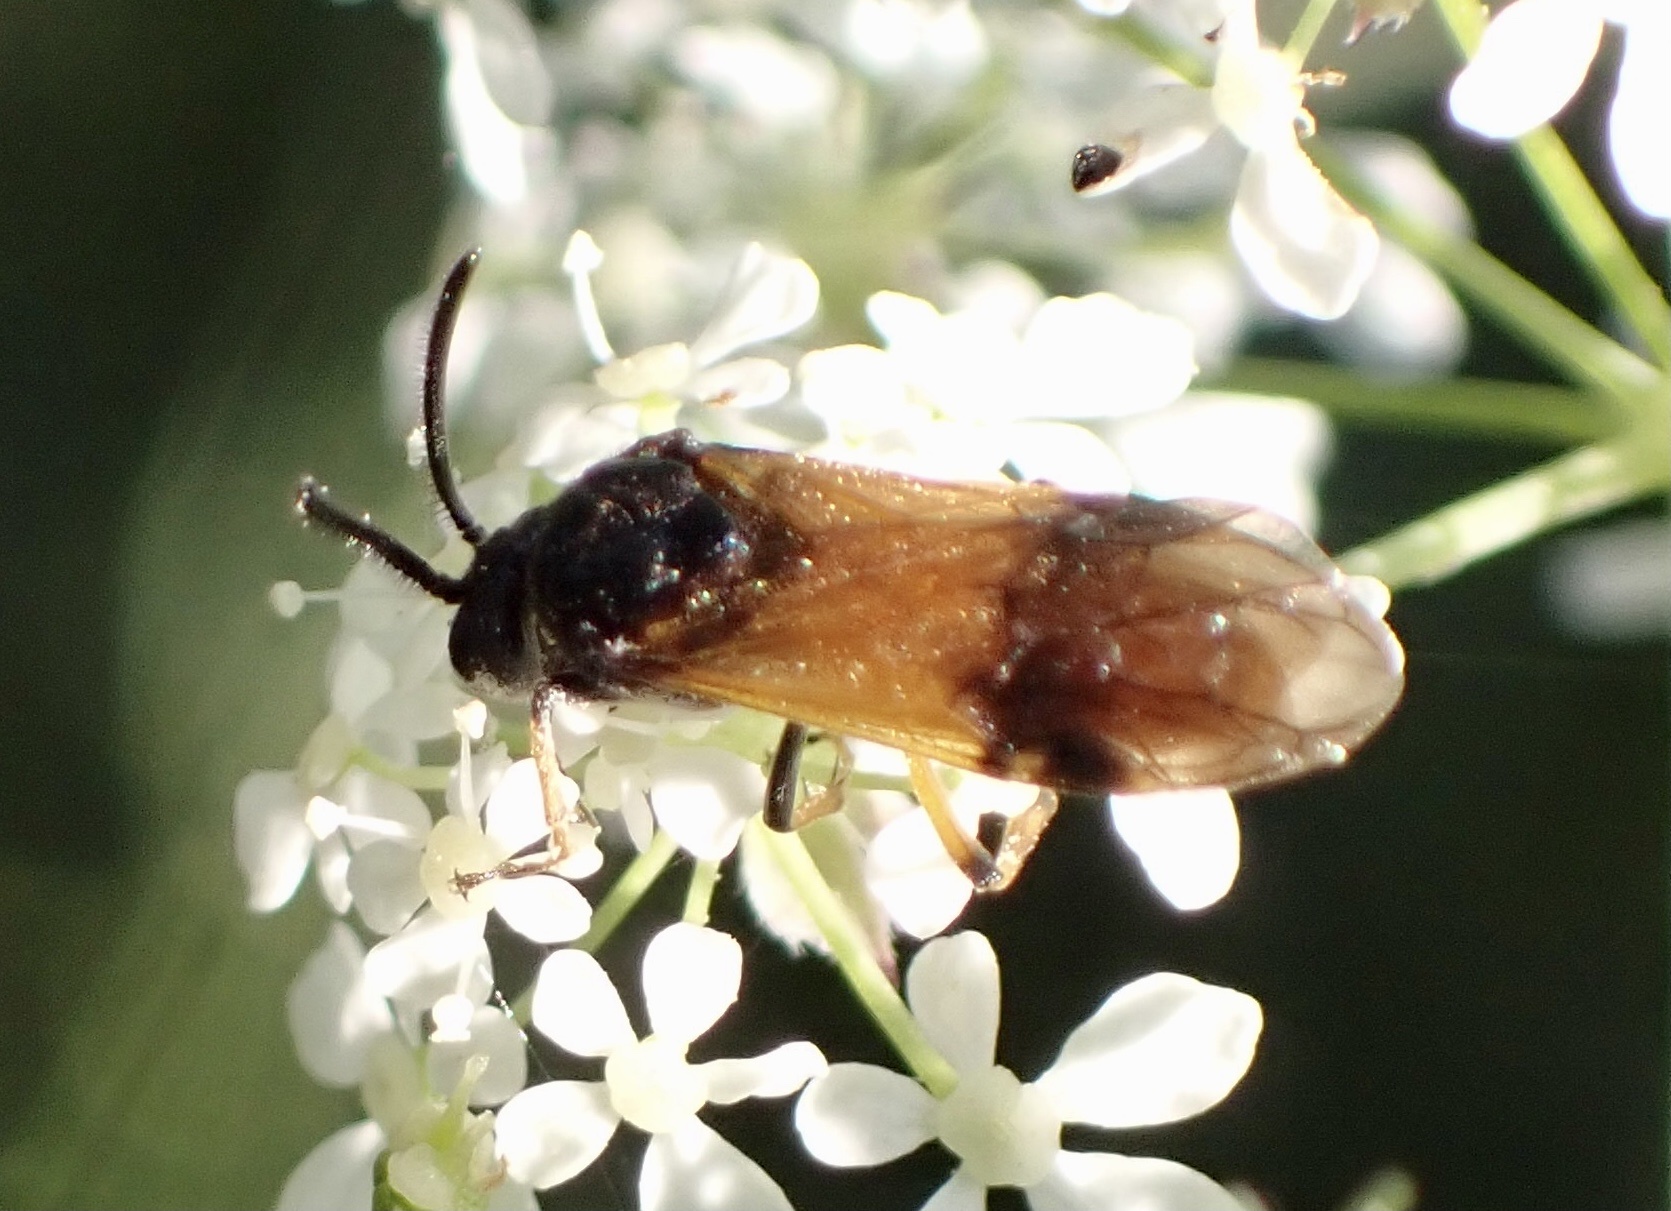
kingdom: Animalia
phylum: Arthropoda
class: Insecta
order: Hymenoptera
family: Argidae
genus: Arge
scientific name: Arge cyanocrocea
